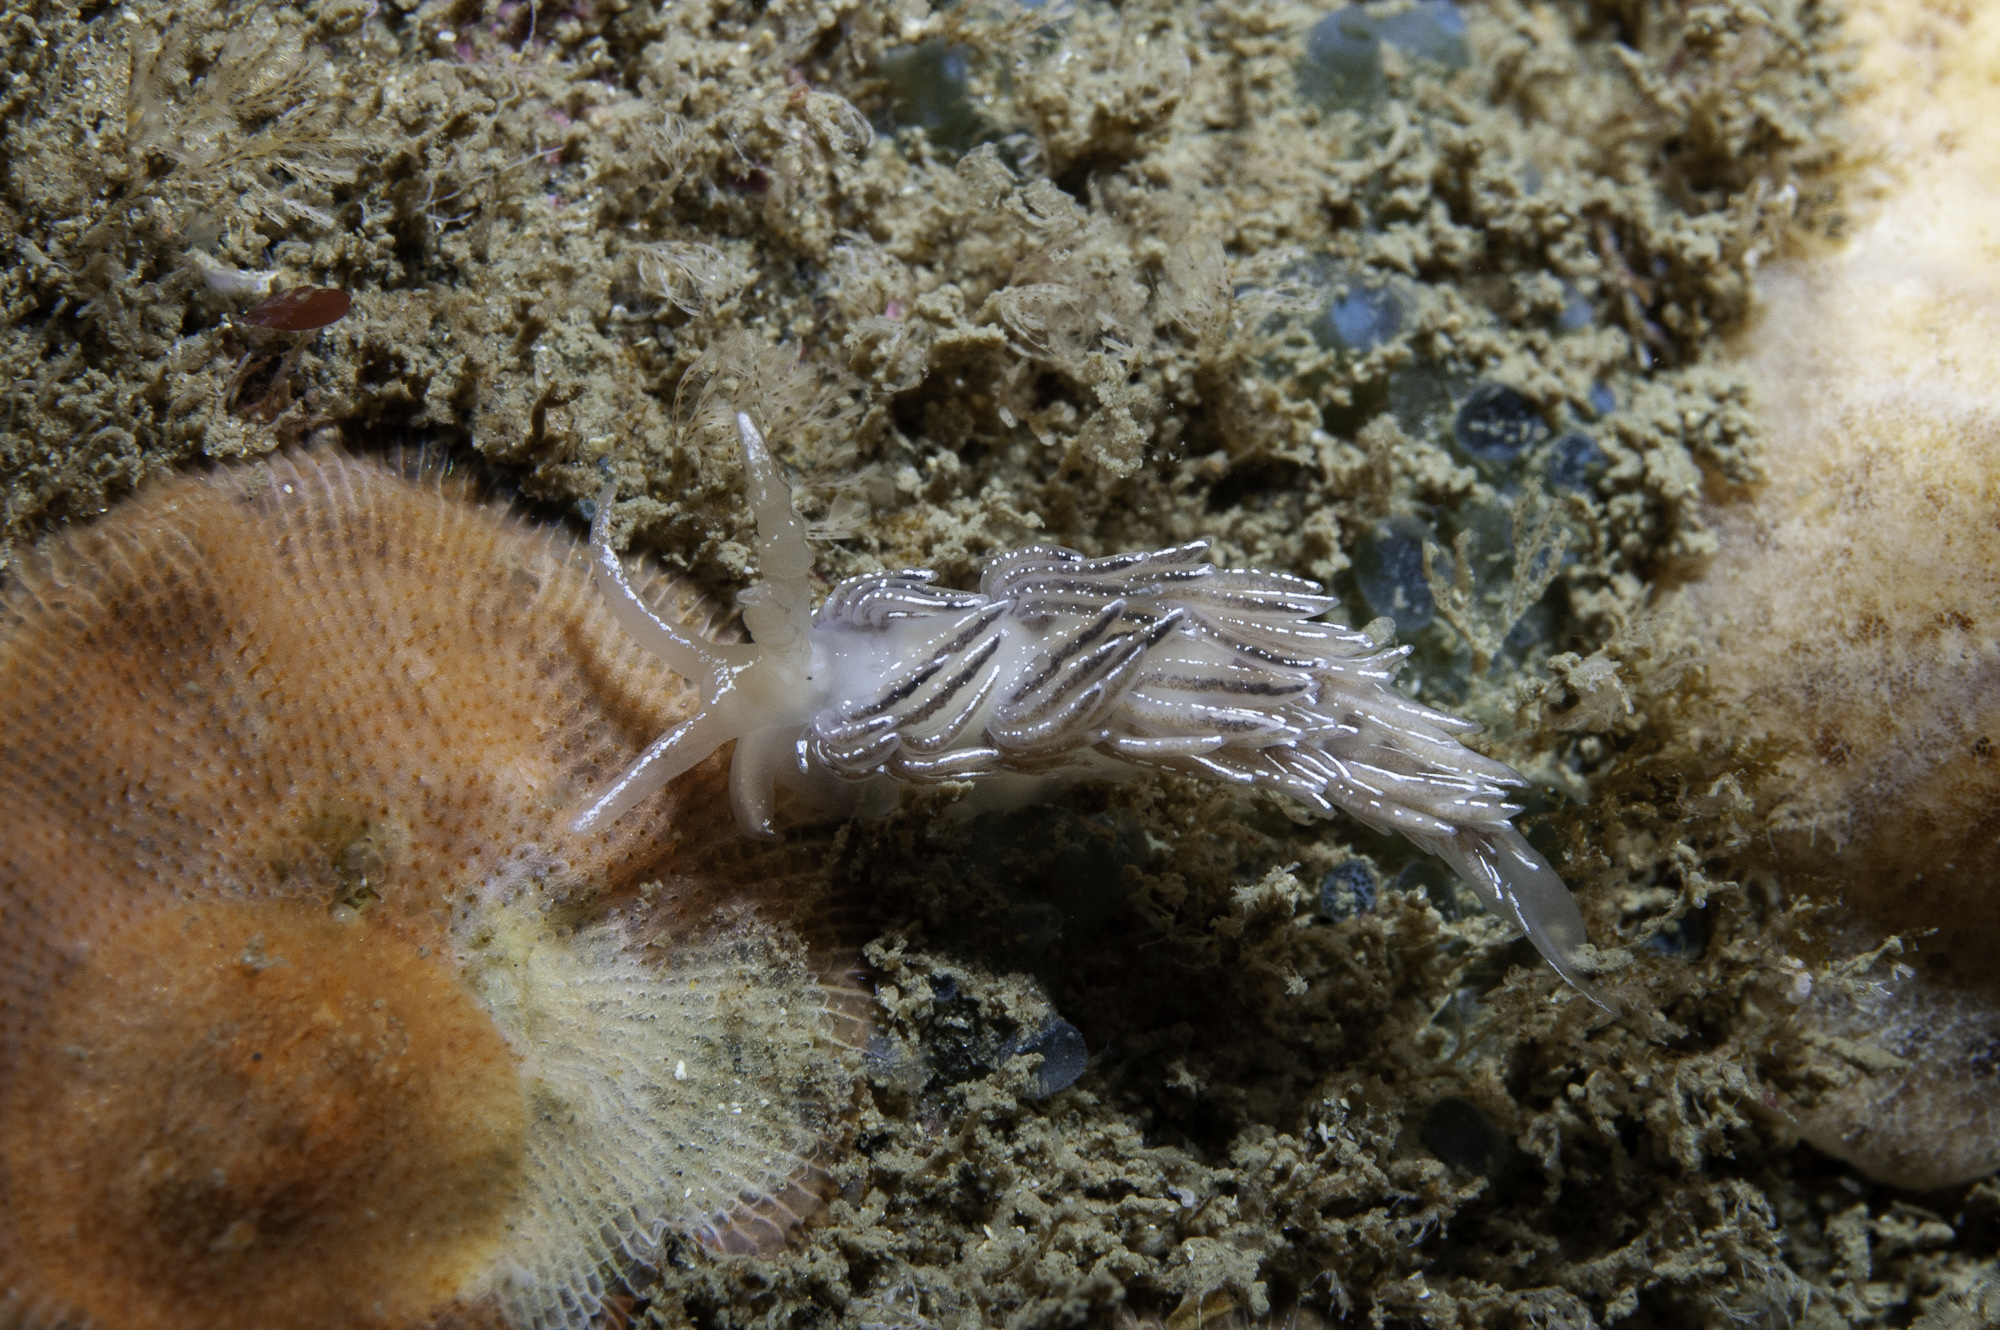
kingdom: Animalia
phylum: Mollusca
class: Gastropoda
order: Nudibranchia
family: Facelinidae
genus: Favorinus
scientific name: Favorinus blianus
